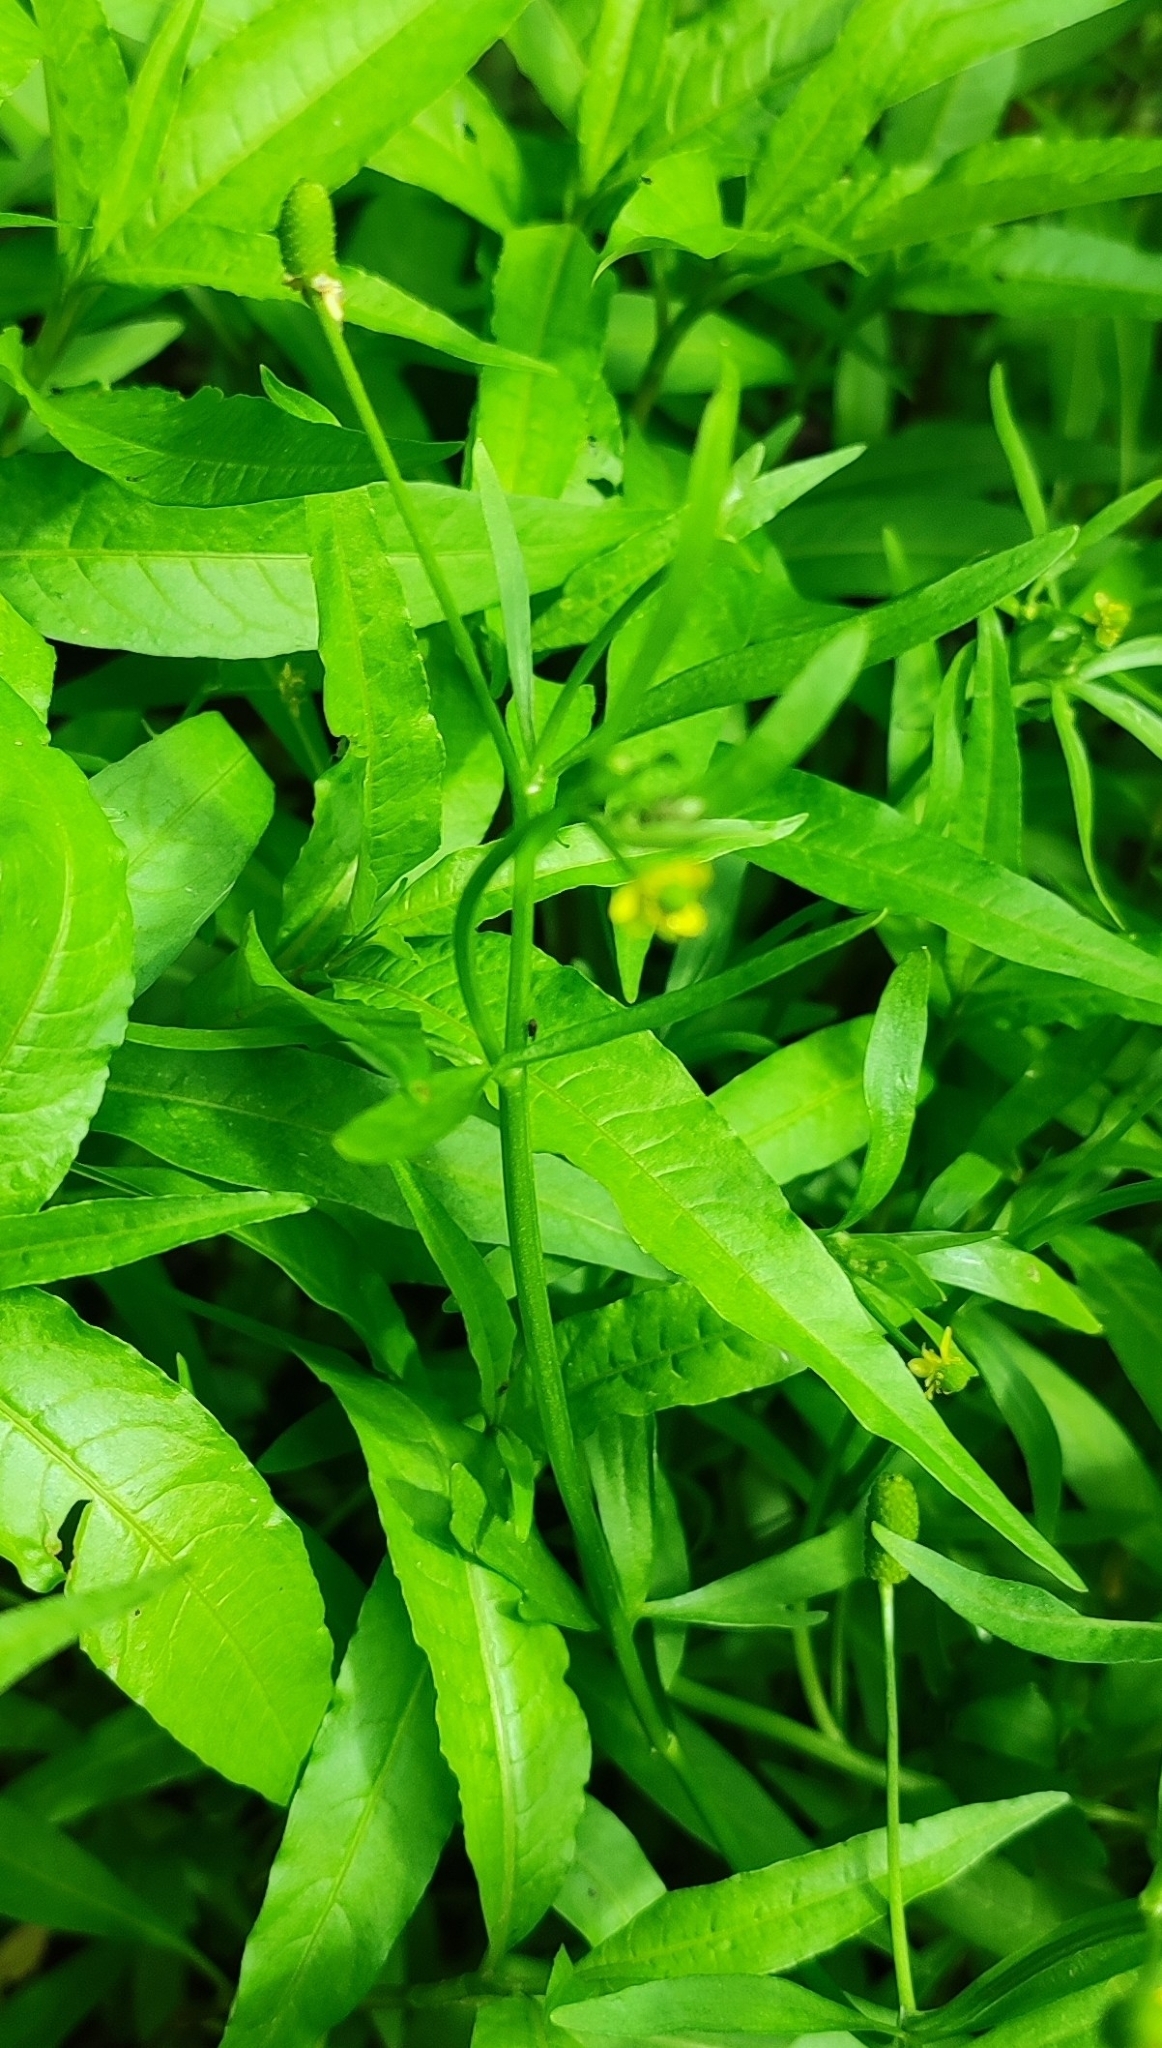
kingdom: Plantae
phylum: Tracheophyta
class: Magnoliopsida
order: Ranunculales
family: Ranunculaceae
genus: Ranunculus
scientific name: Ranunculus sceleratus
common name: Celery-leaved buttercup
